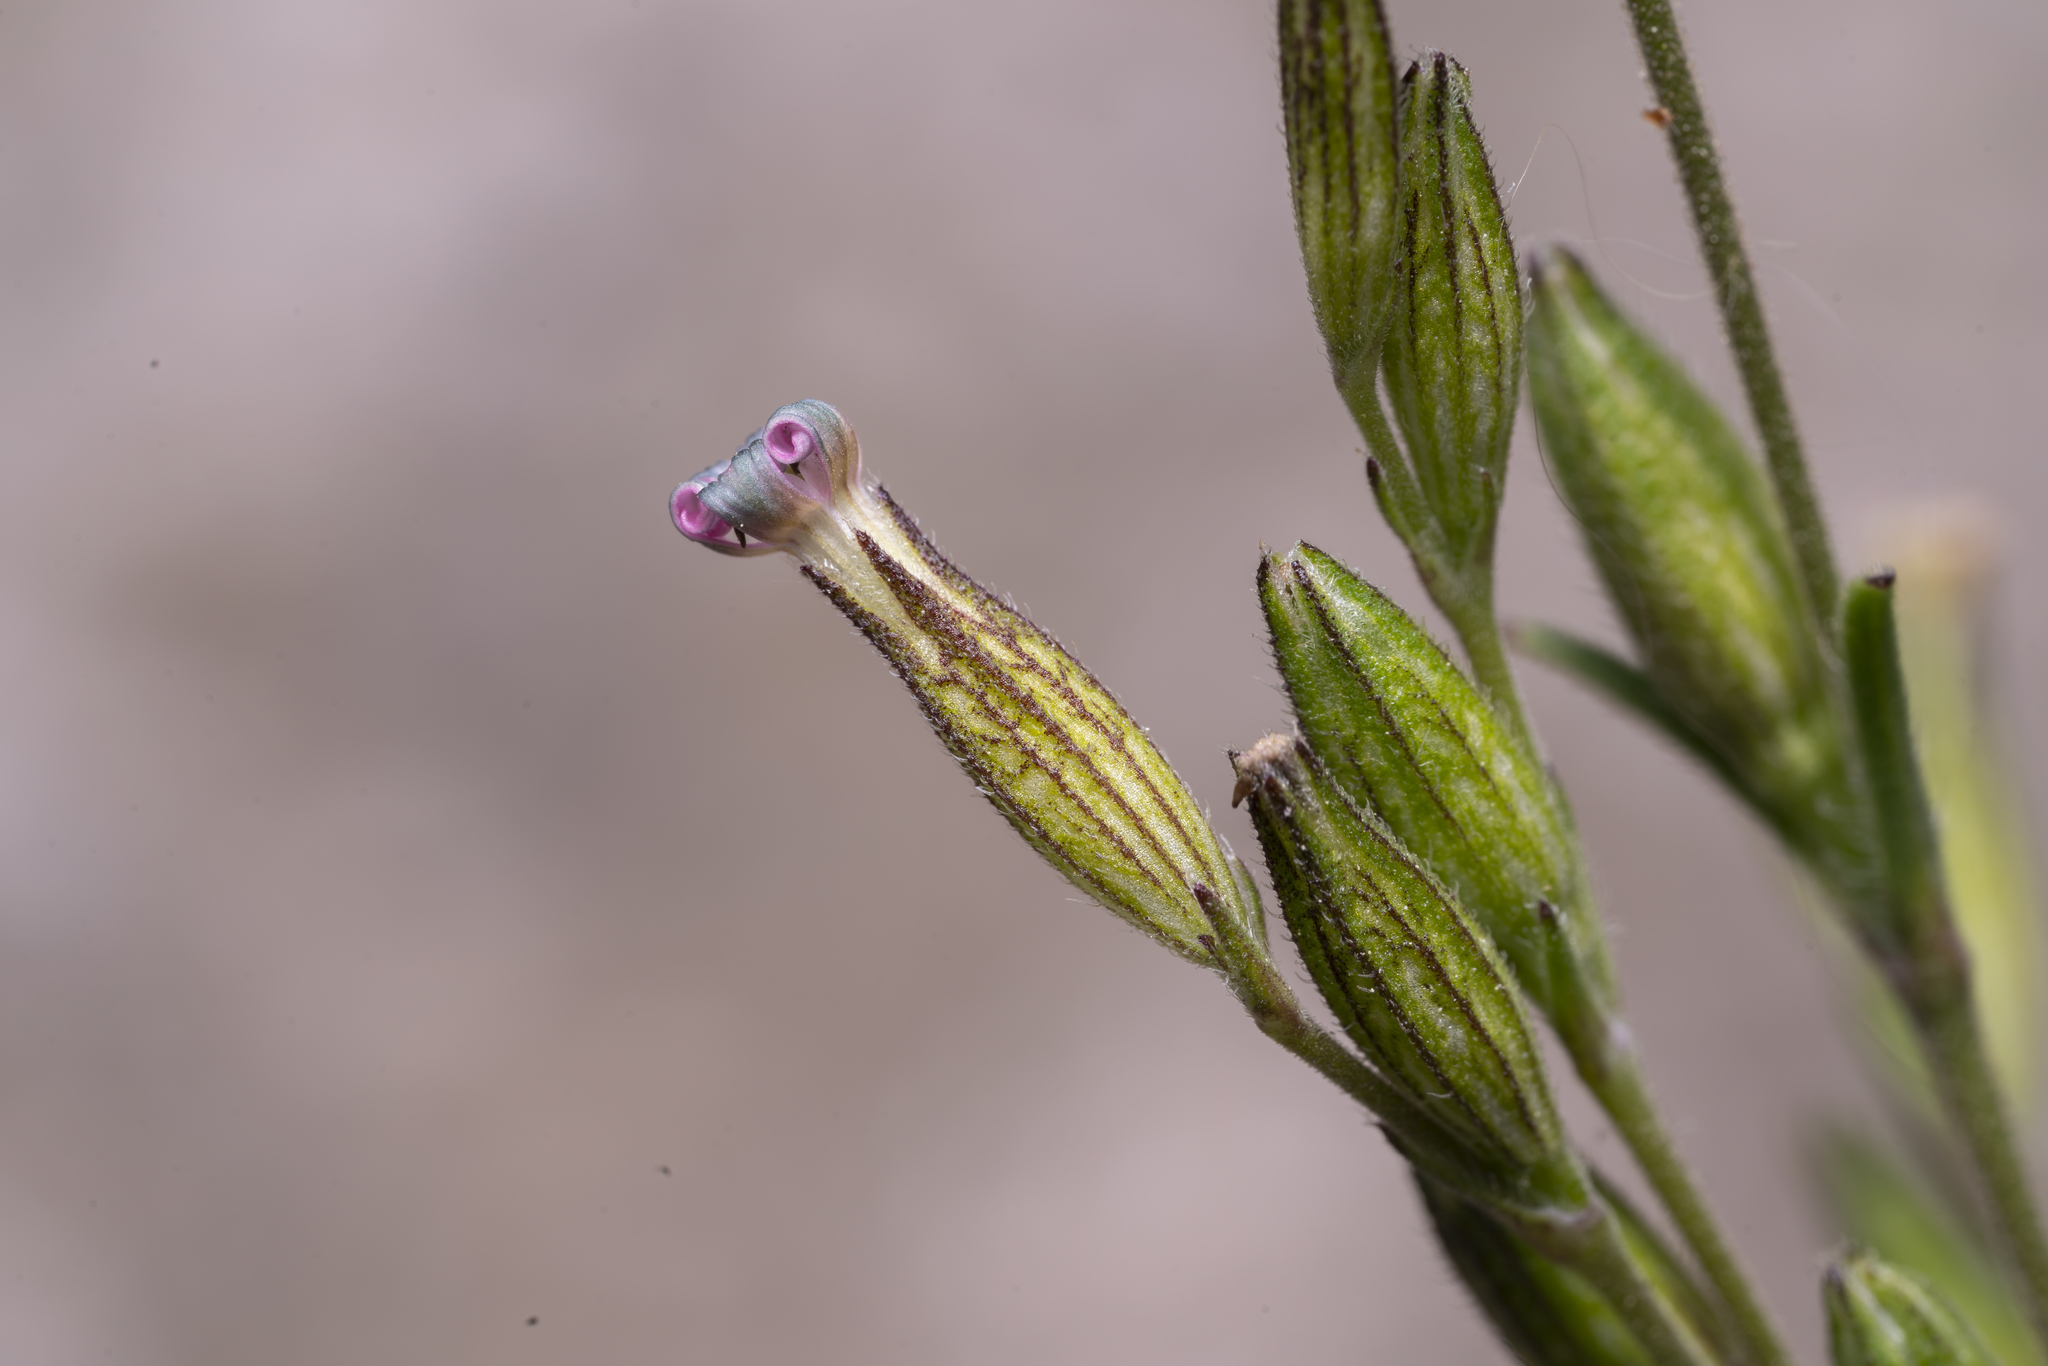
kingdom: Plantae
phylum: Tracheophyta
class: Magnoliopsida
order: Caryophyllales
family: Caryophyllaceae
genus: Silene
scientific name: Silene nocturna
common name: Mediterranean catchfly
